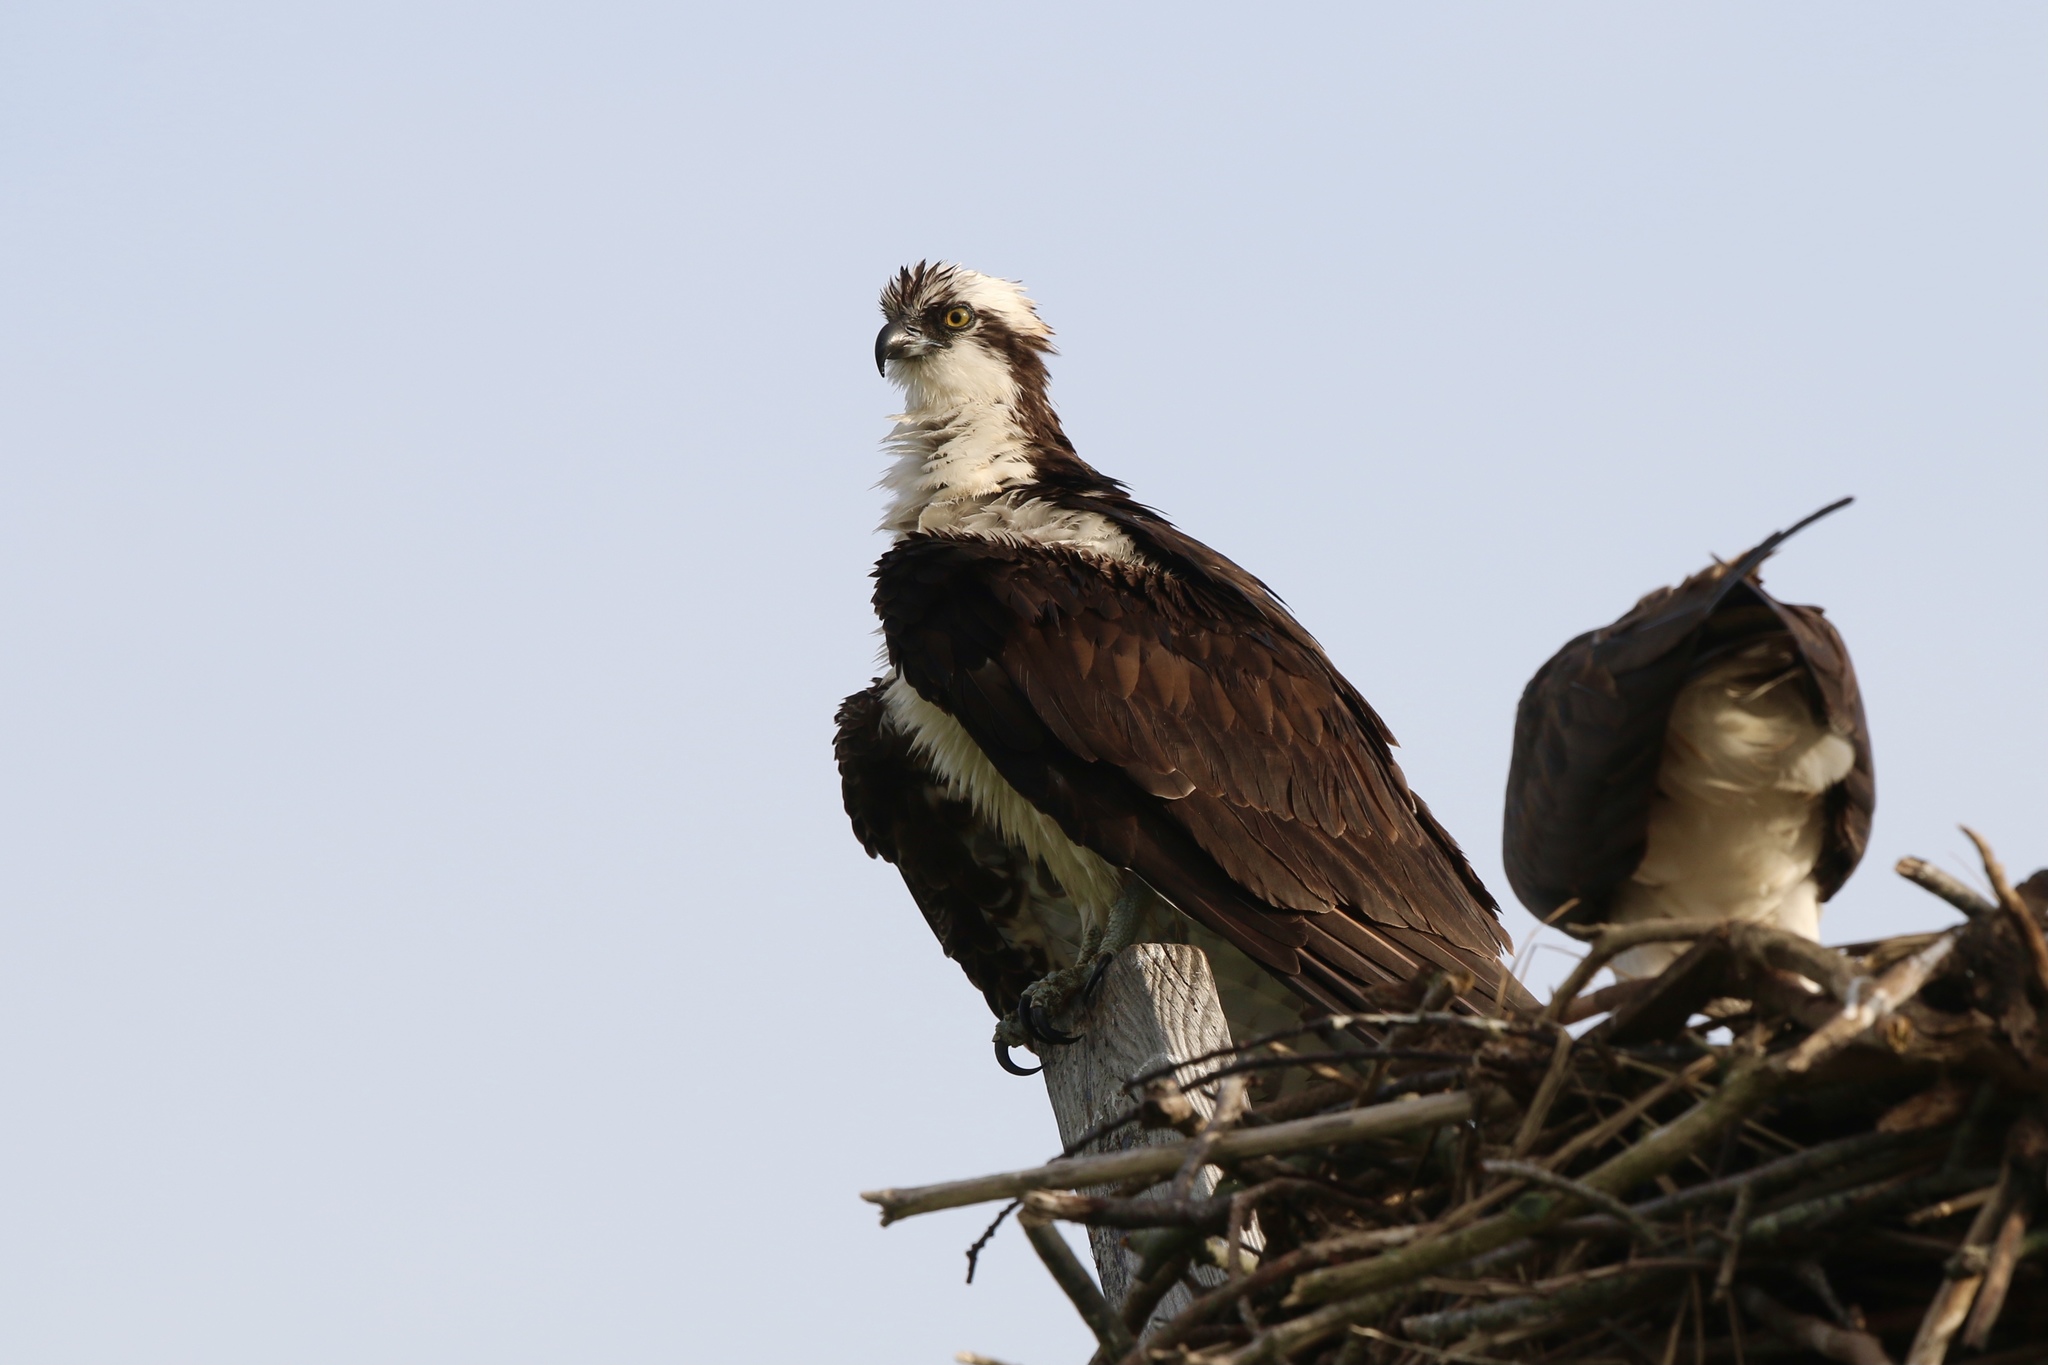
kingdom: Animalia
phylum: Chordata
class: Aves
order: Accipitriformes
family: Pandionidae
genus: Pandion
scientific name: Pandion haliaetus
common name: Osprey
